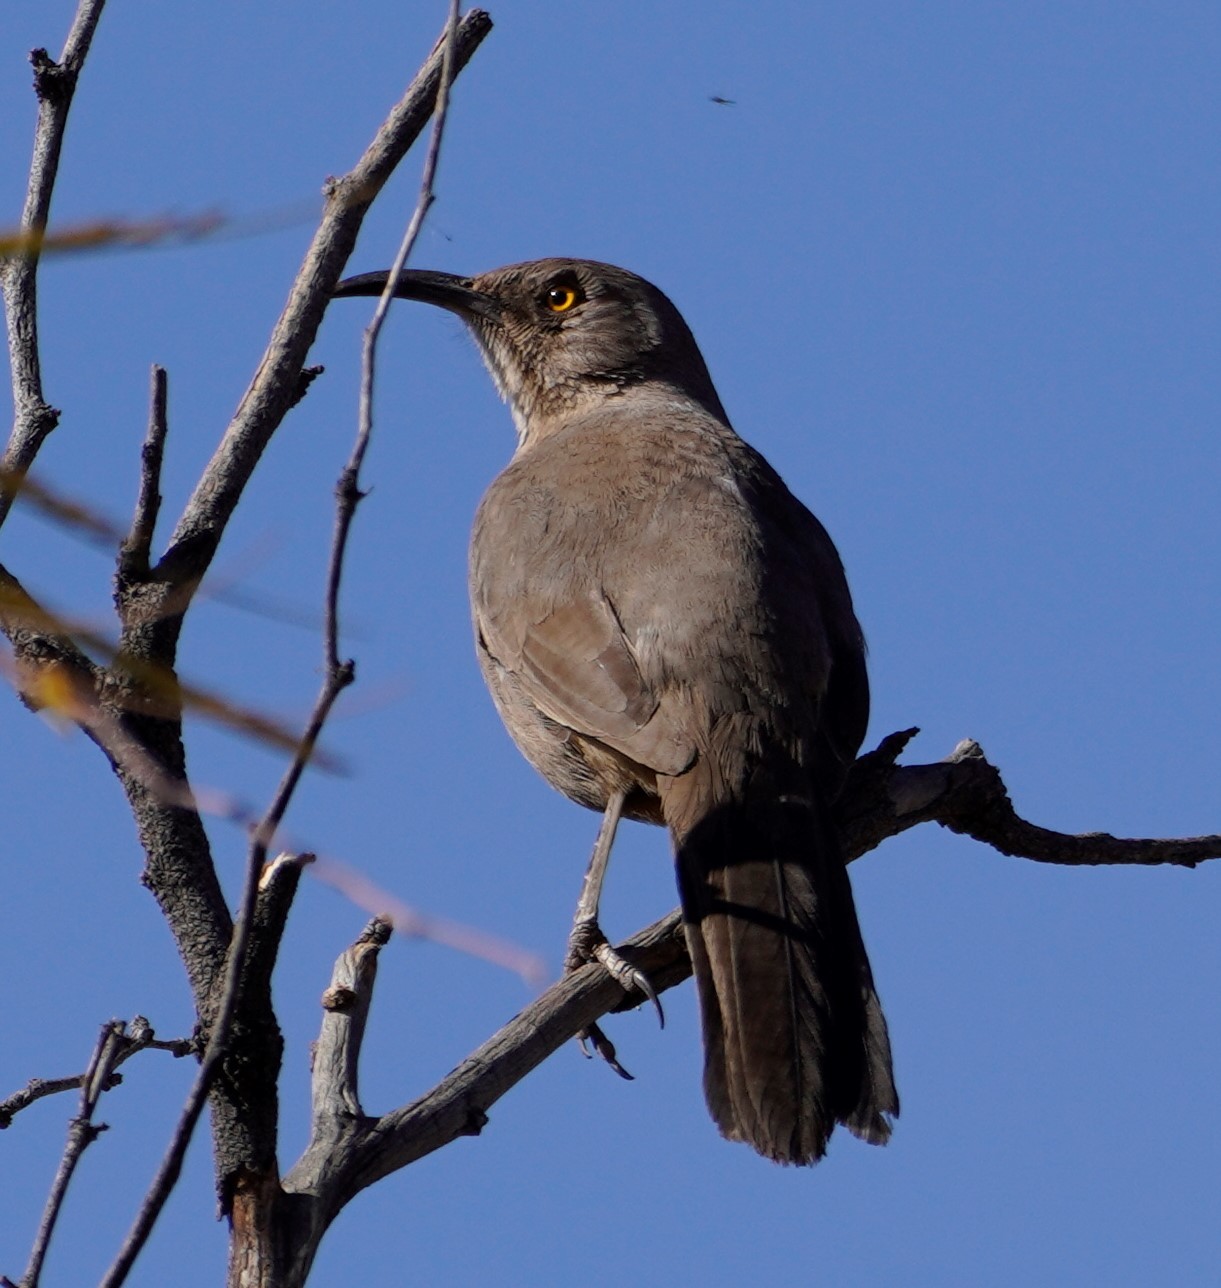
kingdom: Animalia
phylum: Chordata
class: Aves
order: Passeriformes
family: Mimidae
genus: Toxostoma
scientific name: Toxostoma curvirostre
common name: Curve-billed thrasher
